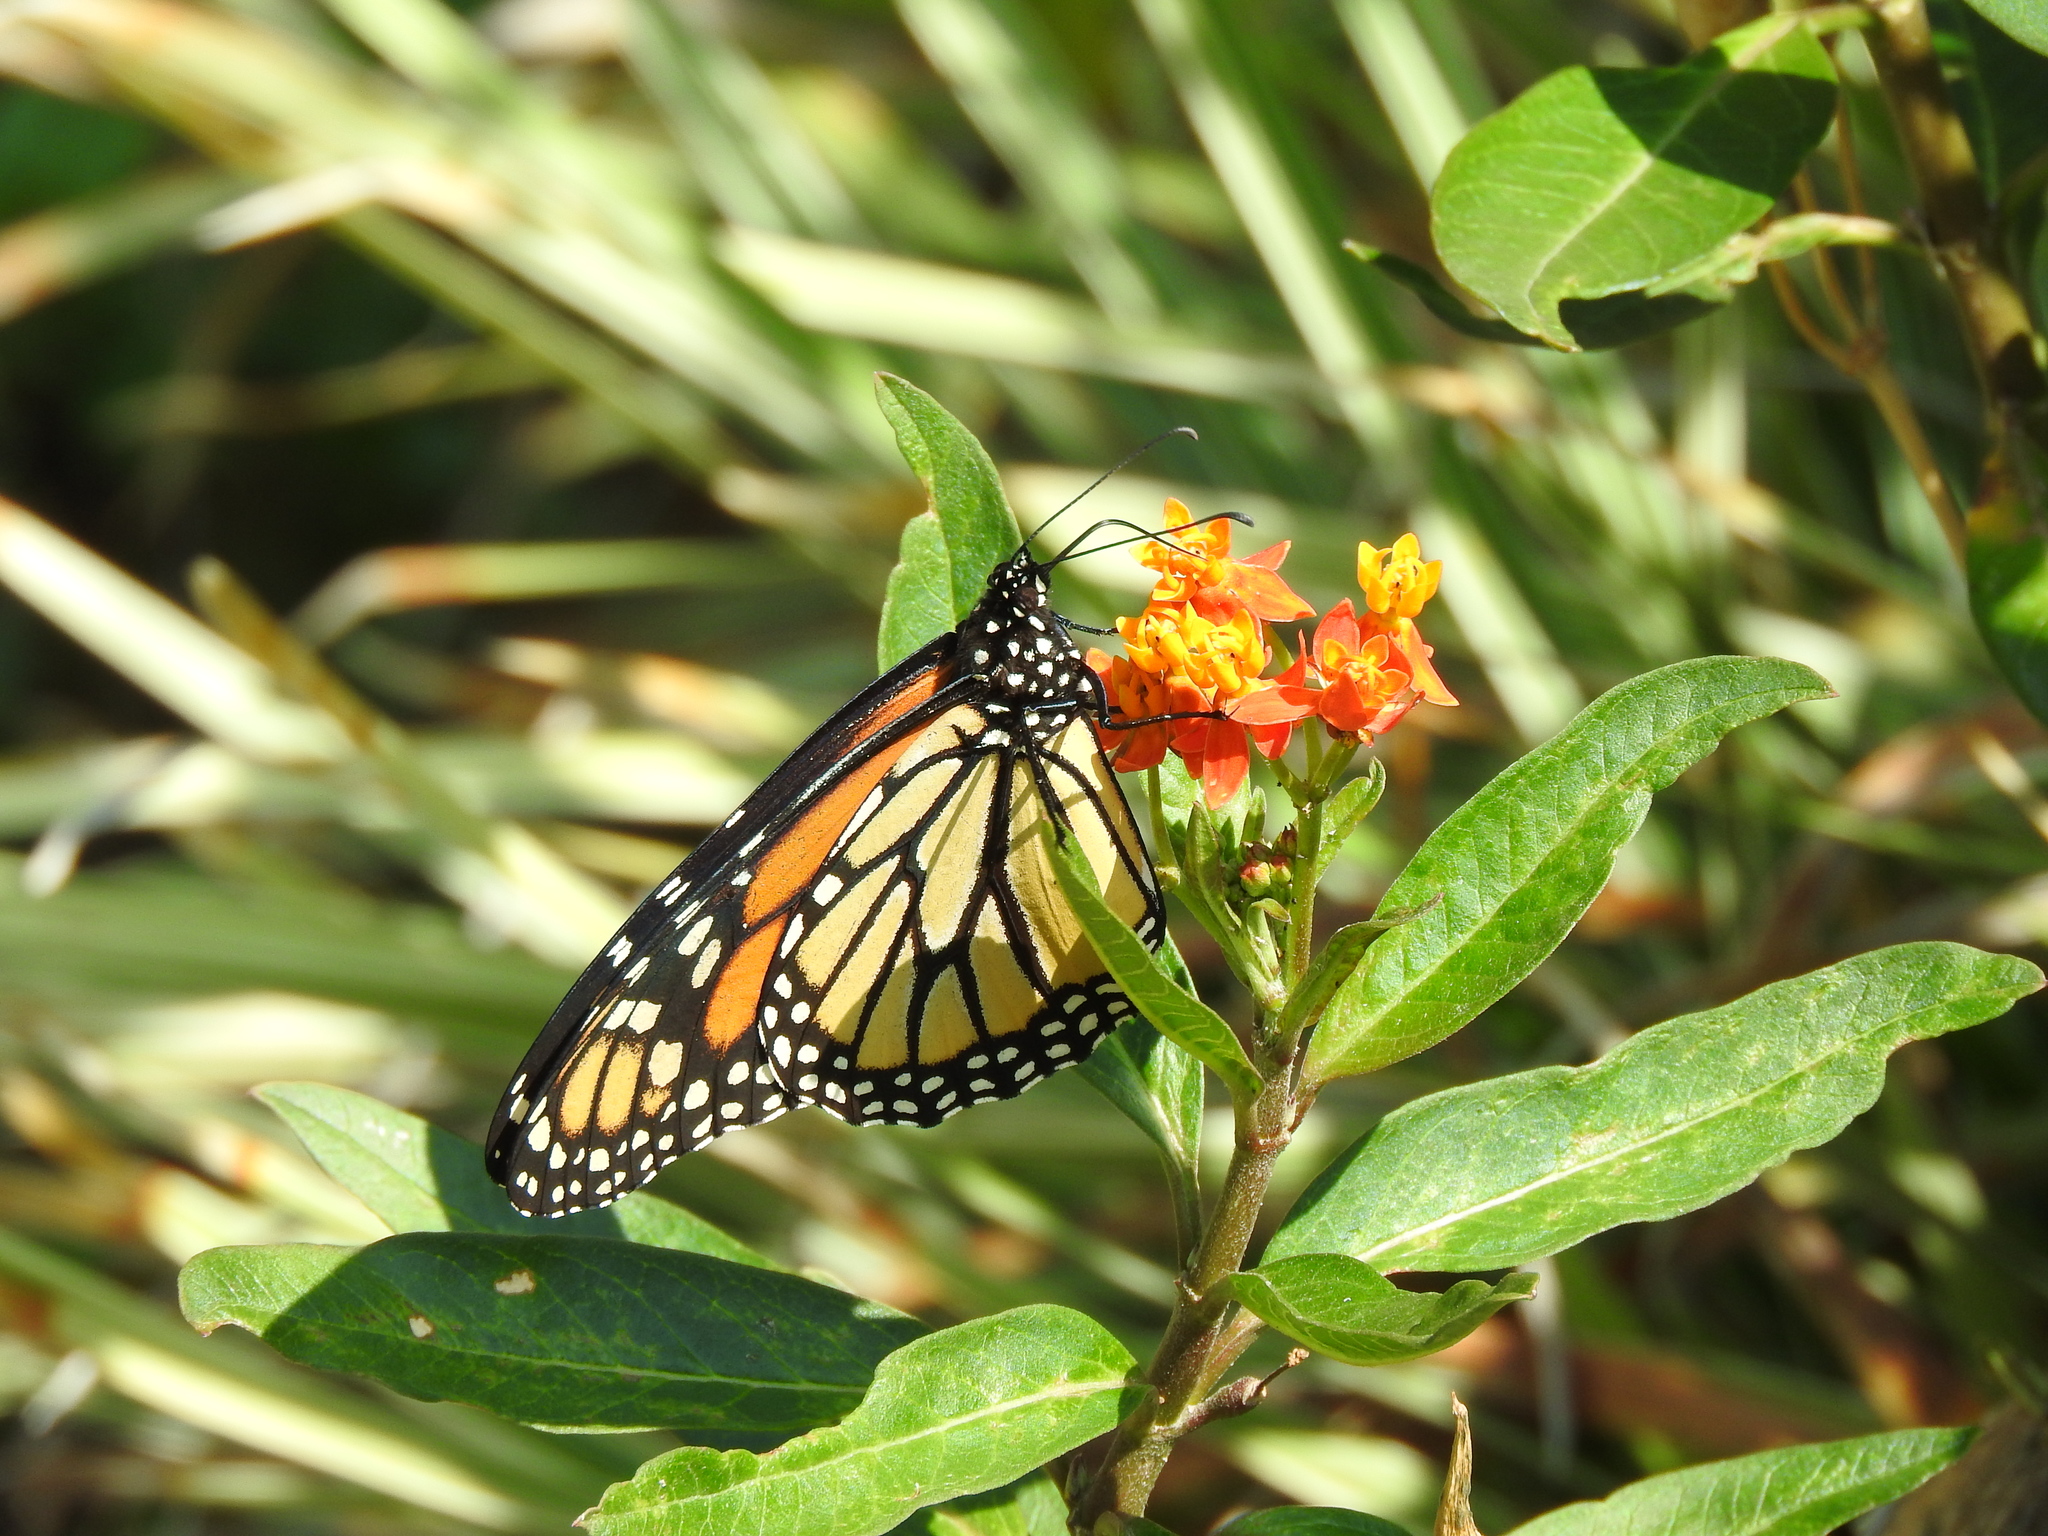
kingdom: Animalia
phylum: Arthropoda
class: Insecta
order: Lepidoptera
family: Nymphalidae
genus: Danaus
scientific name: Danaus plexippus
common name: Monarch
